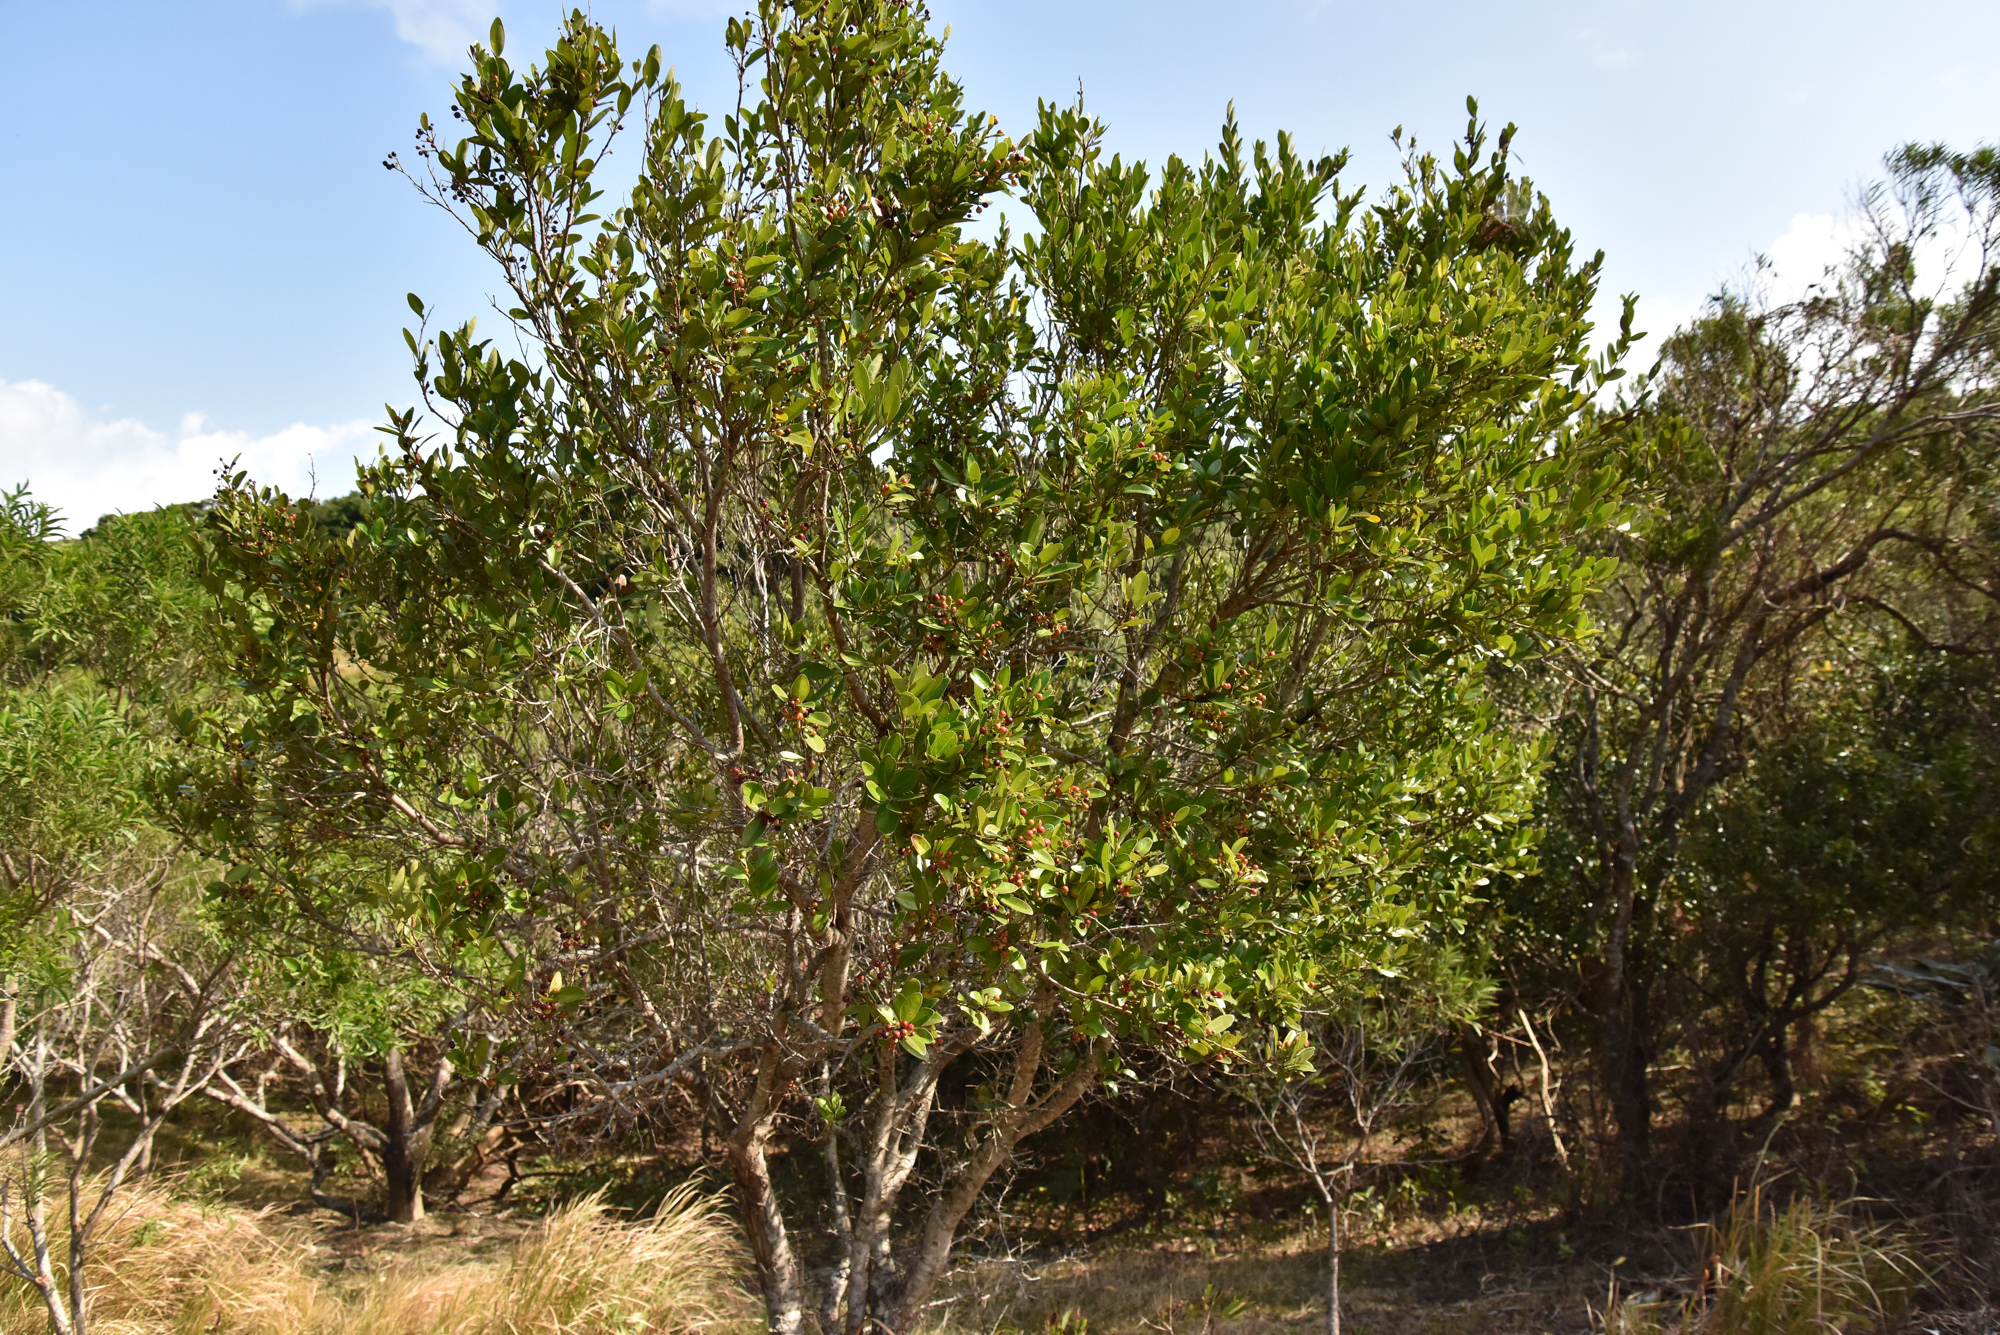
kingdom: Plantae
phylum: Tracheophyta
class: Magnoliopsida
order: Malpighiales
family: Salicaceae
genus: Scolopia
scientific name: Scolopia oldhamii
